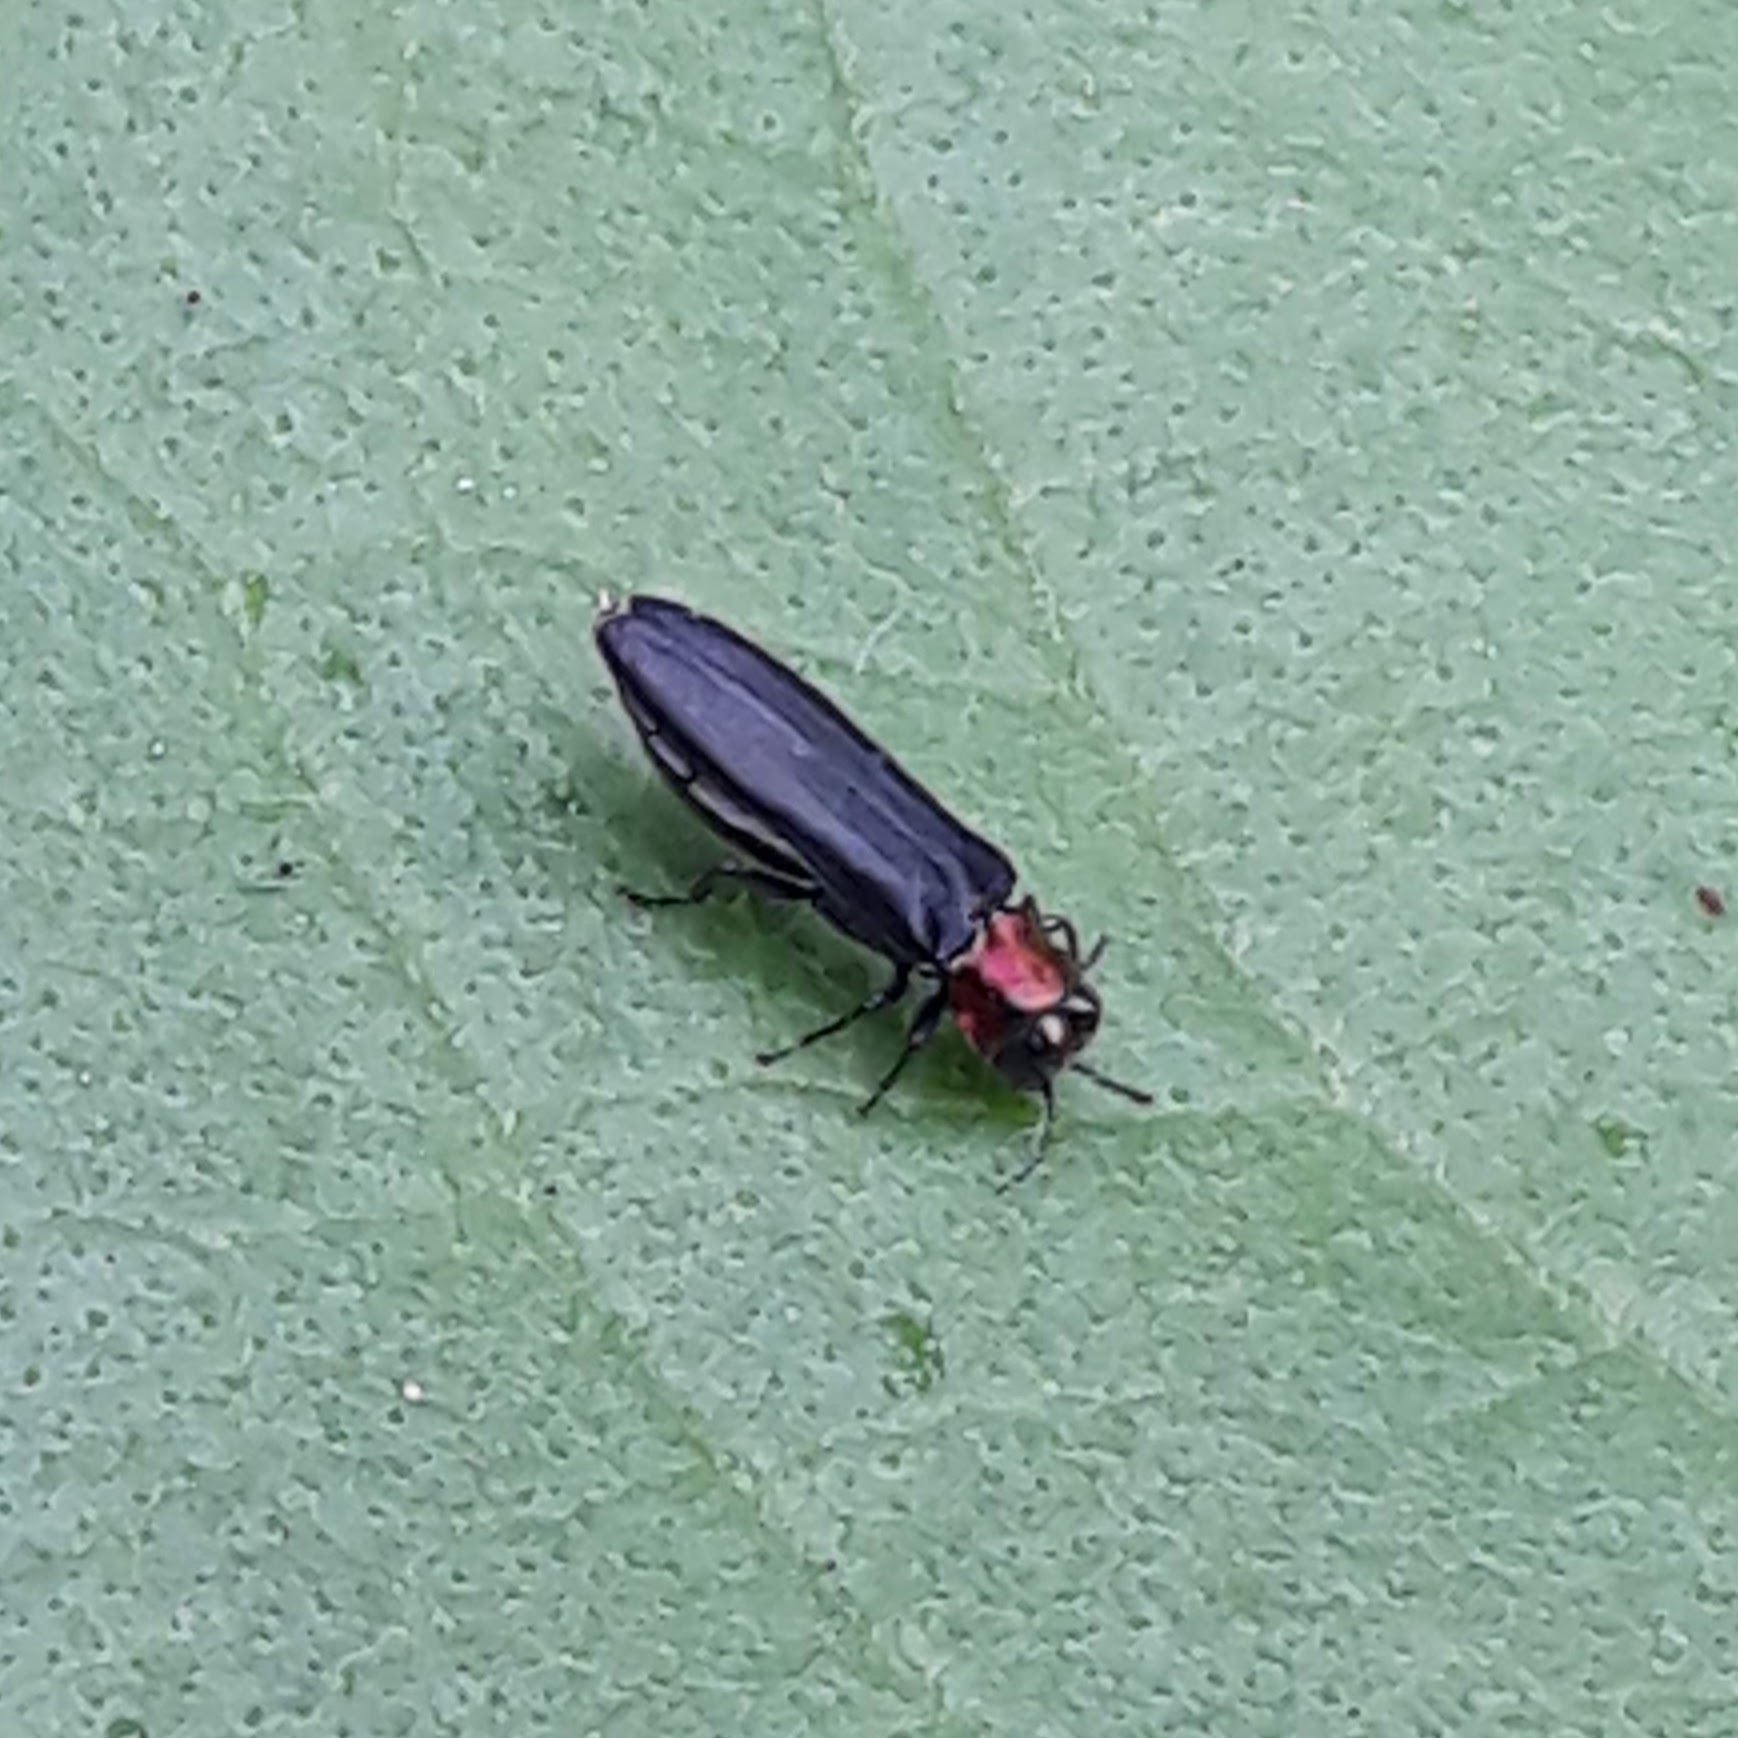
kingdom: Animalia
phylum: Arthropoda
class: Insecta
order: Coleoptera
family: Buprestidae
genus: Agrilus
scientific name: Agrilus ruficollis
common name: Red-necked cane borer beetle
